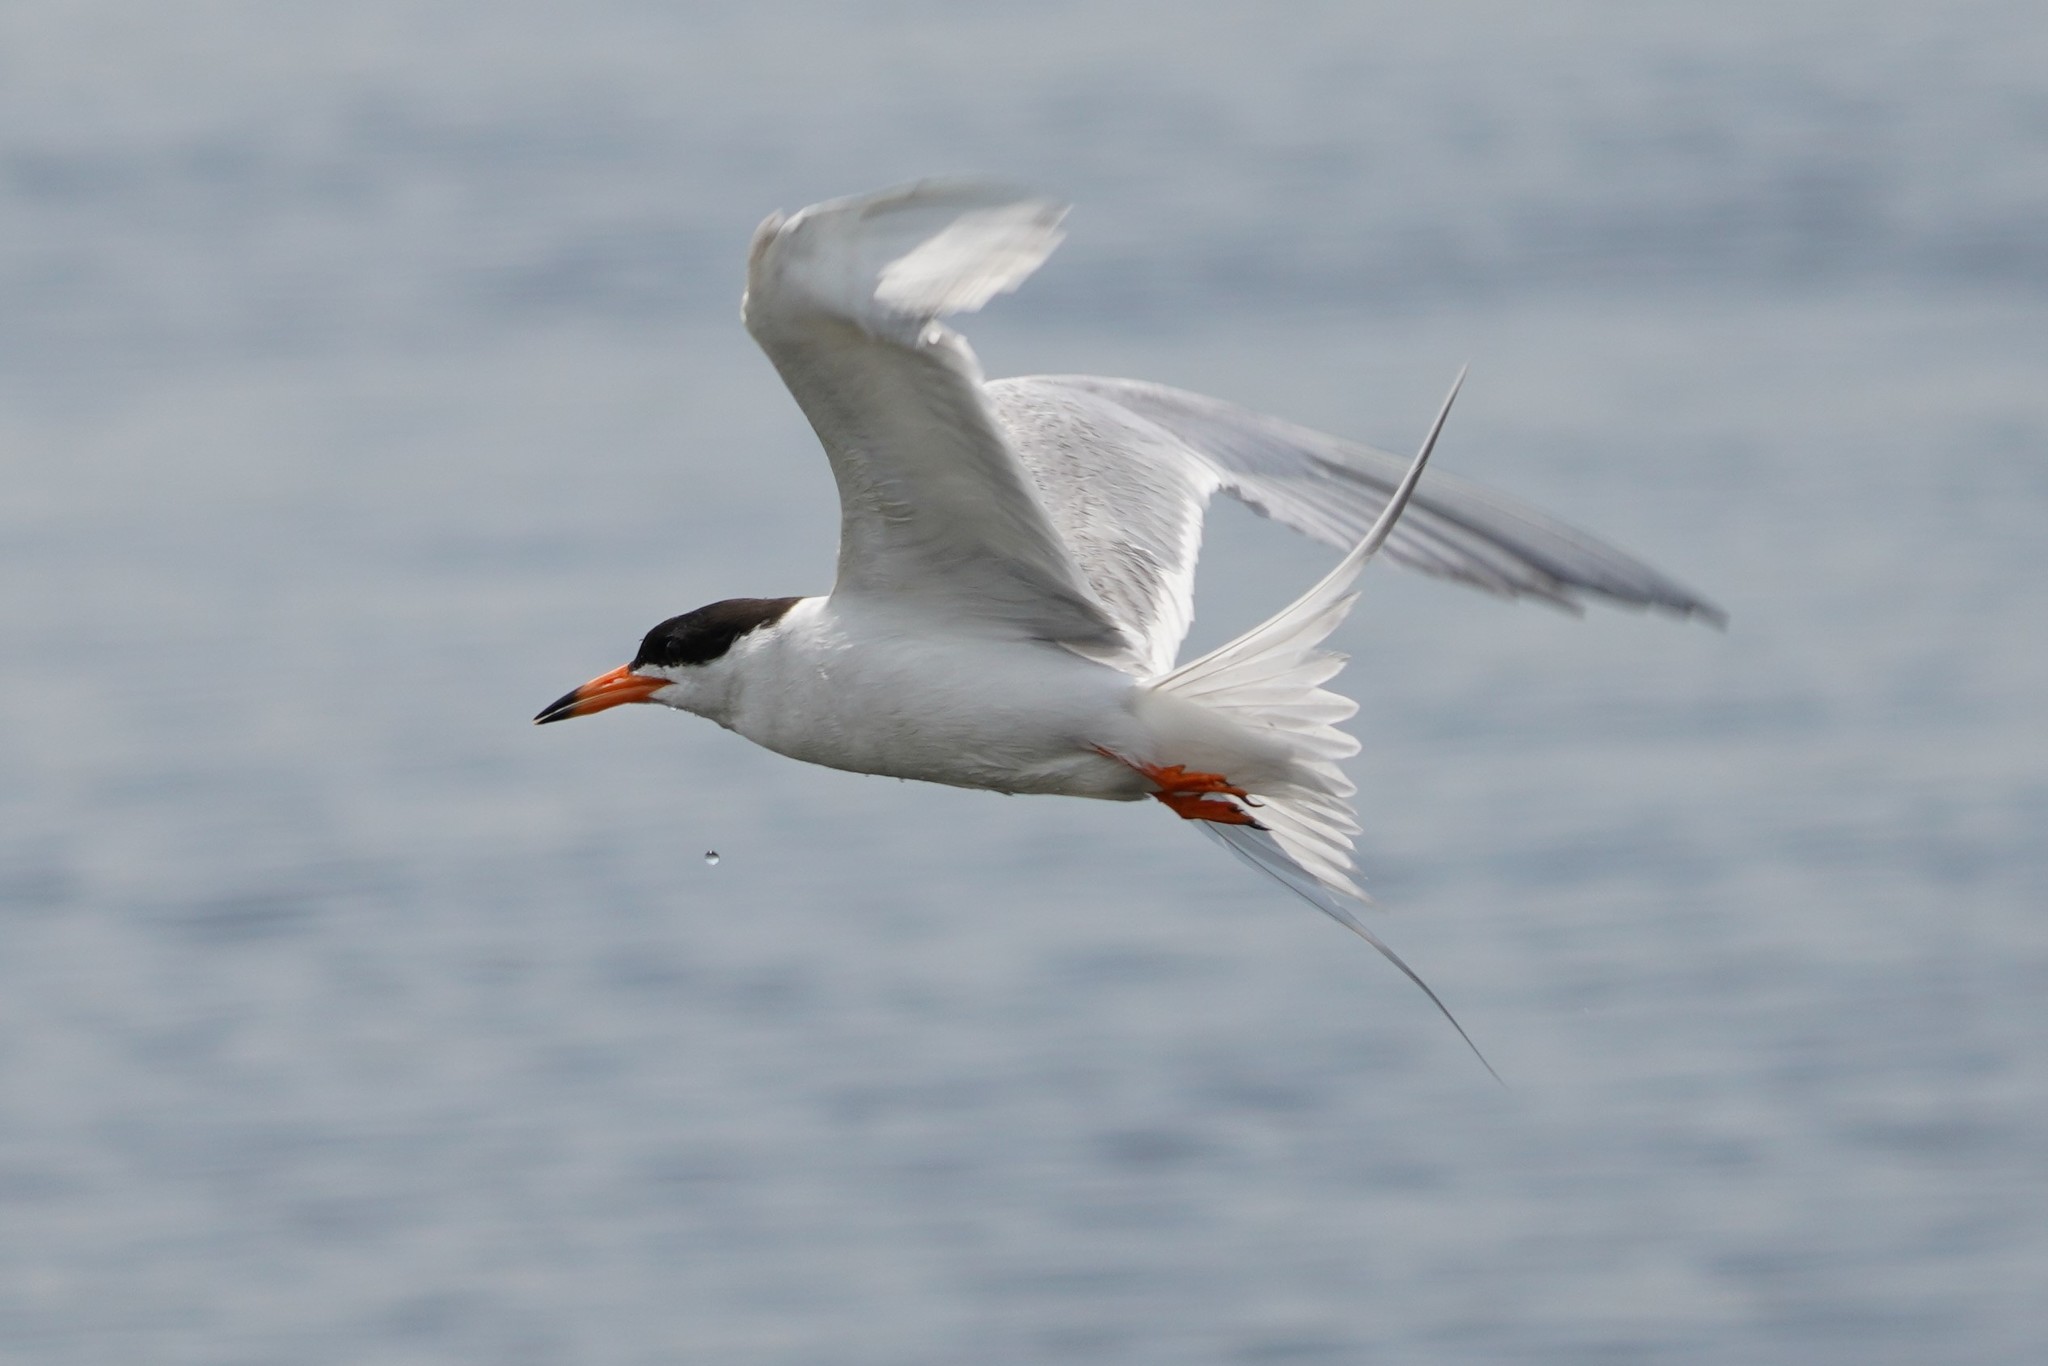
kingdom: Animalia
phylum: Chordata
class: Aves
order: Charadriiformes
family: Laridae
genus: Sterna
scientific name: Sterna hirundo
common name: Common tern
